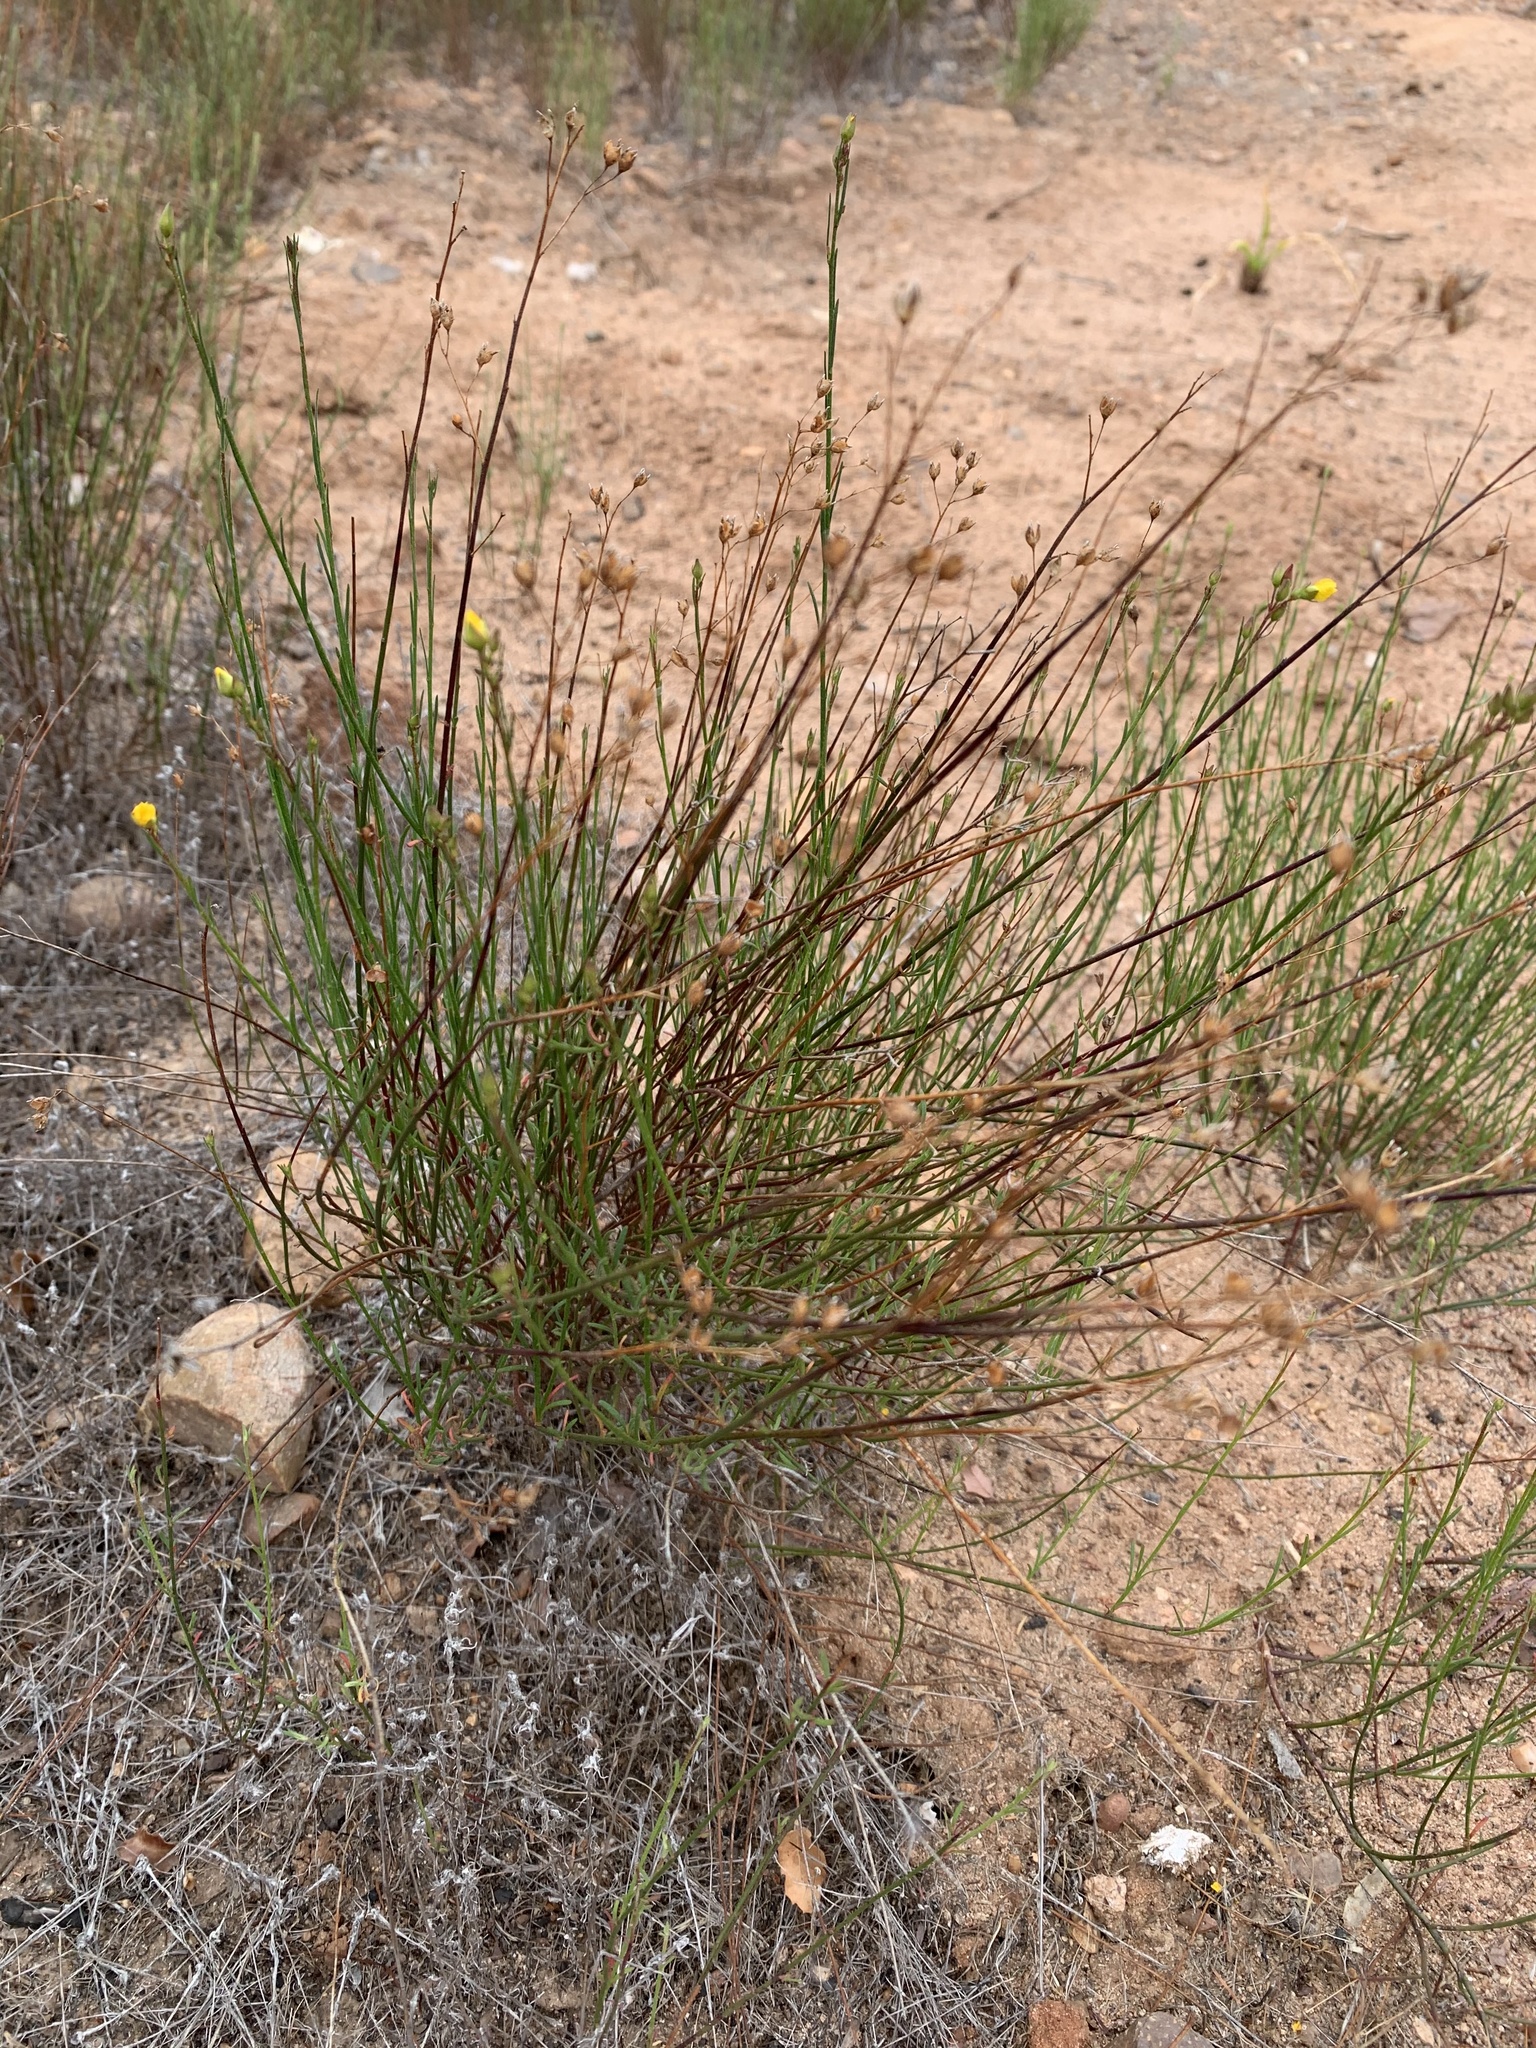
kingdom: Plantae
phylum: Tracheophyta
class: Magnoliopsida
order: Malvales
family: Cistaceae
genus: Crocanthemum
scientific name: Crocanthemum scoparium
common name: Broom-rose
